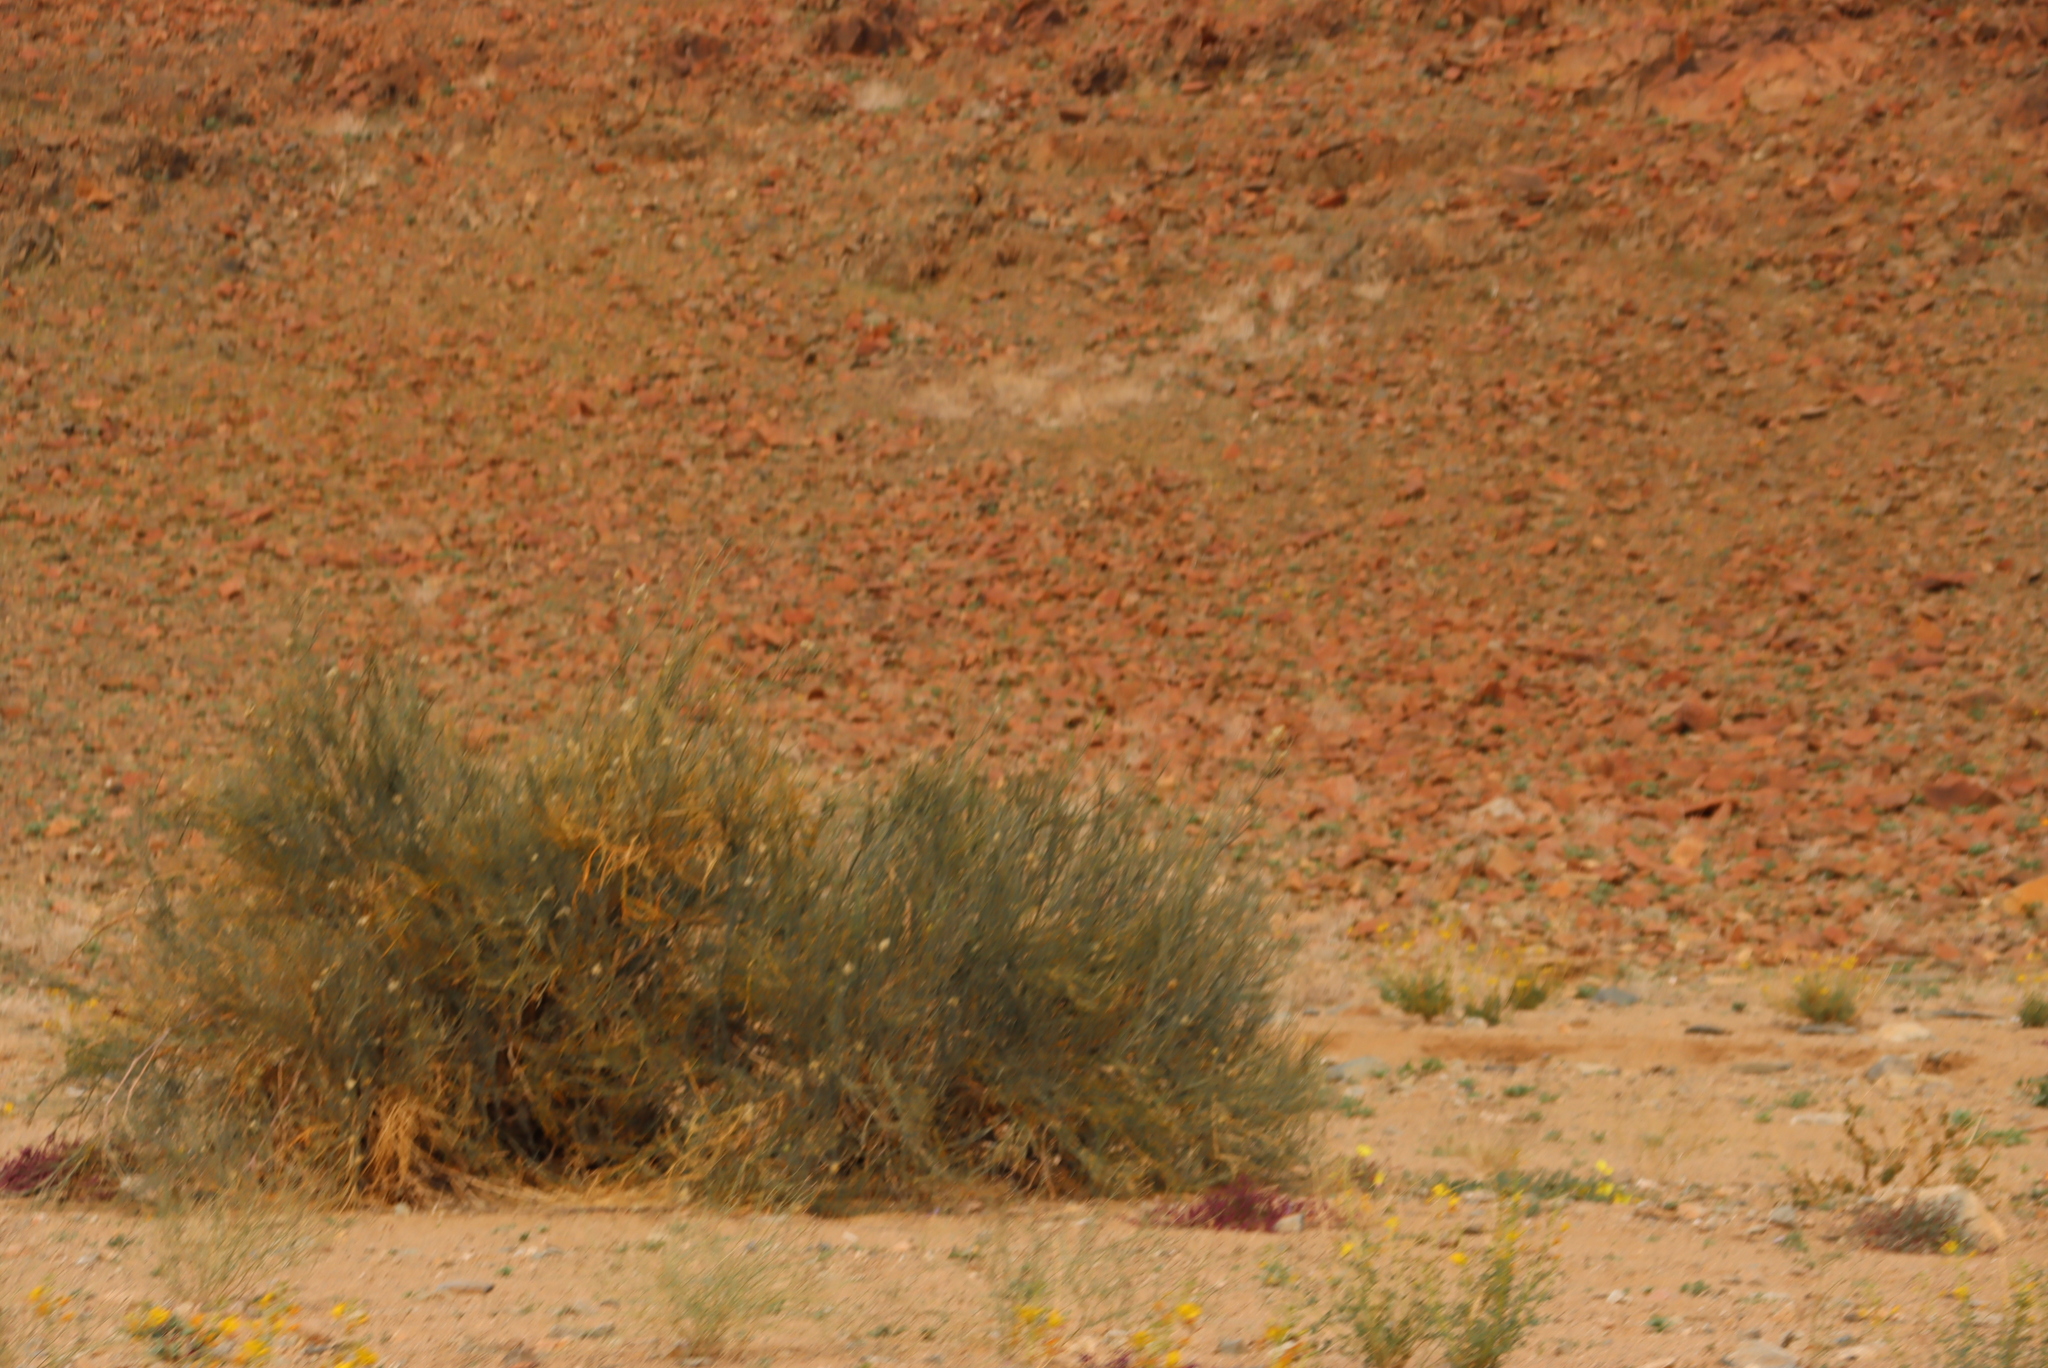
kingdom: Plantae
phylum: Tracheophyta
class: Magnoliopsida
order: Zygophyllales
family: Zygophyllaceae
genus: Sisyndite
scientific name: Sisyndite spartea
